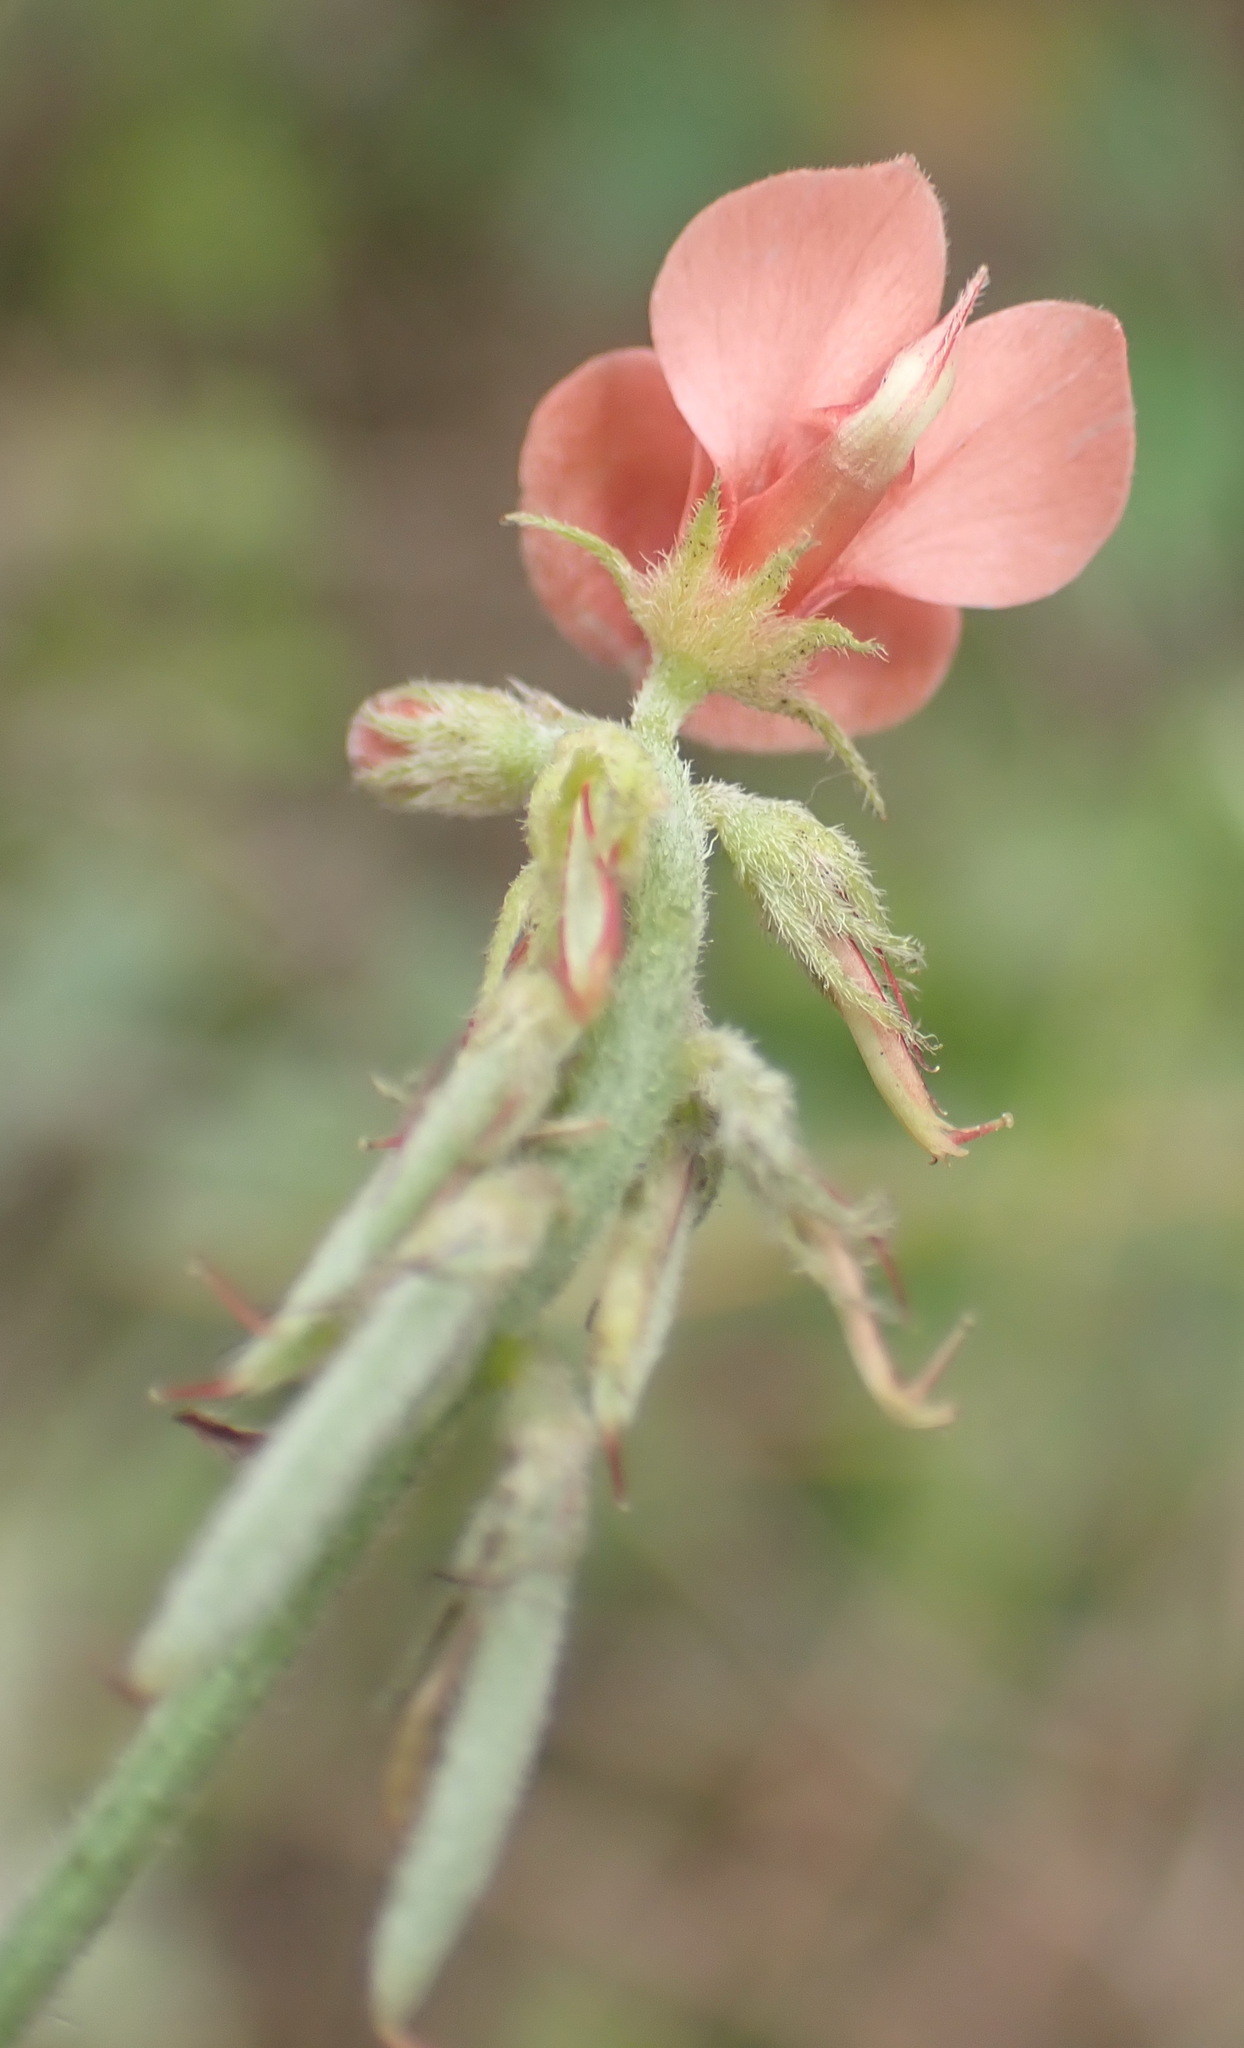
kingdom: Plantae
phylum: Tracheophyta
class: Magnoliopsida
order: Fabales
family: Fabaceae
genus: Indigofera
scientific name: Indigofera heterophylla
